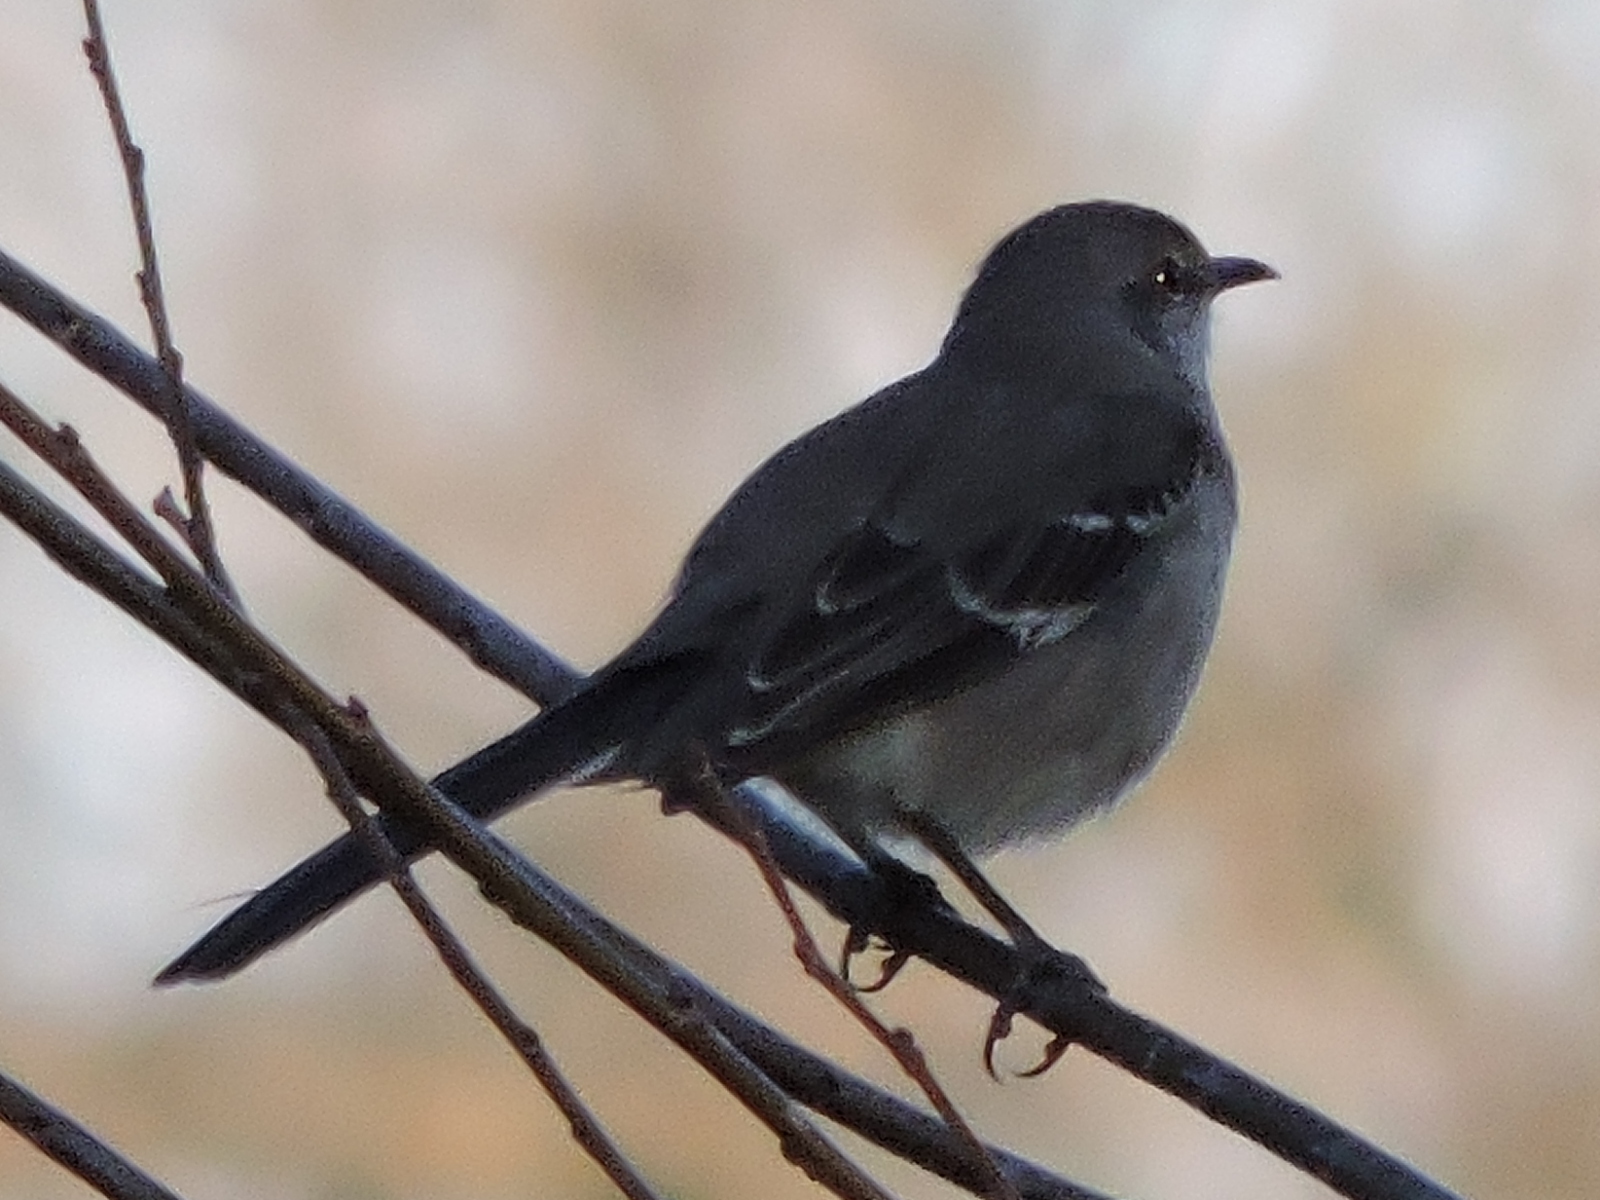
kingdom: Animalia
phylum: Chordata
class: Aves
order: Passeriformes
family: Mimidae
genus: Mimus
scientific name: Mimus polyglottos
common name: Northern mockingbird
